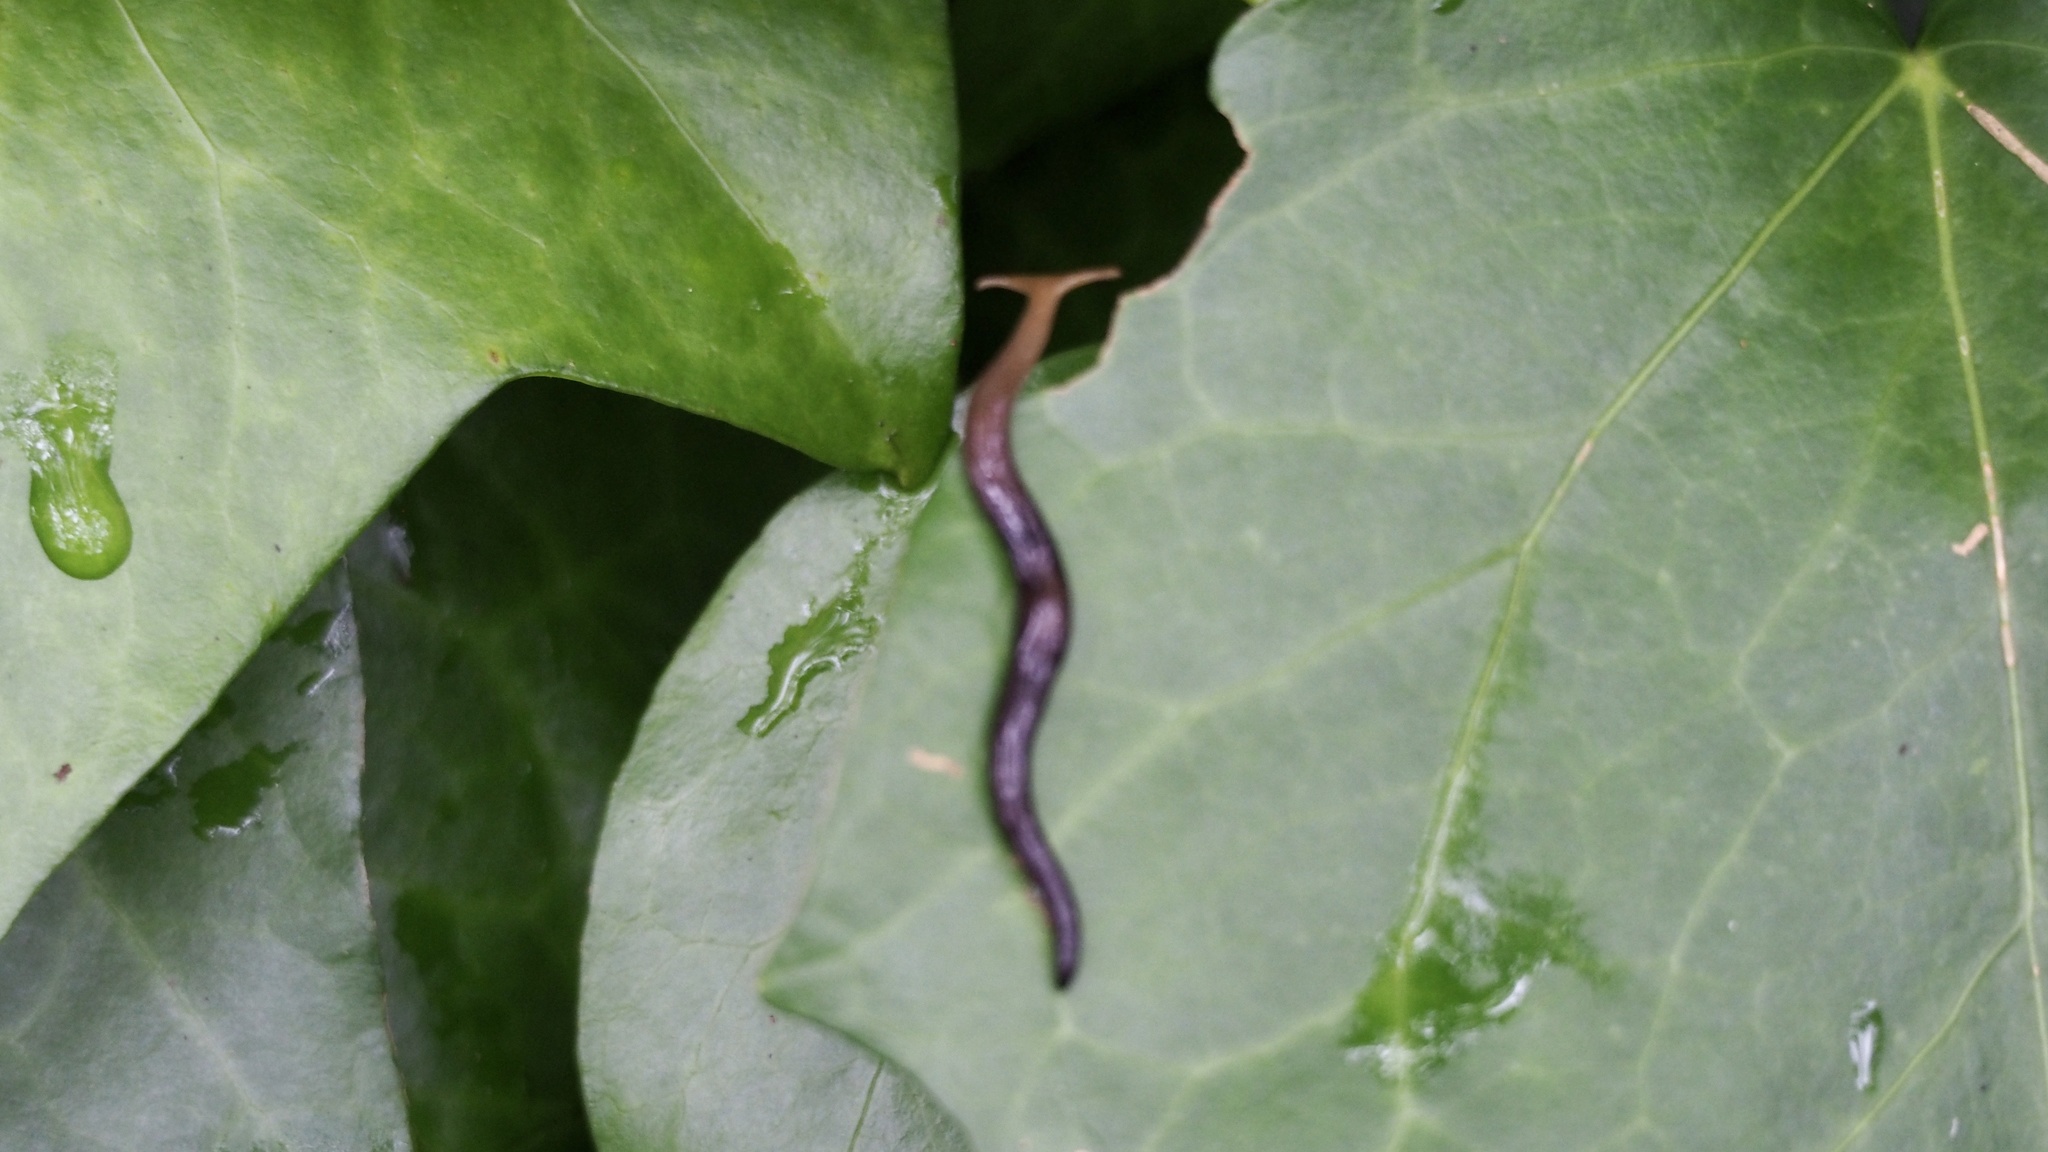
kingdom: Animalia
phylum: Platyhelminthes
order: Tricladida
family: Geoplanidae
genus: Bipalium
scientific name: Bipalium fuscatum
